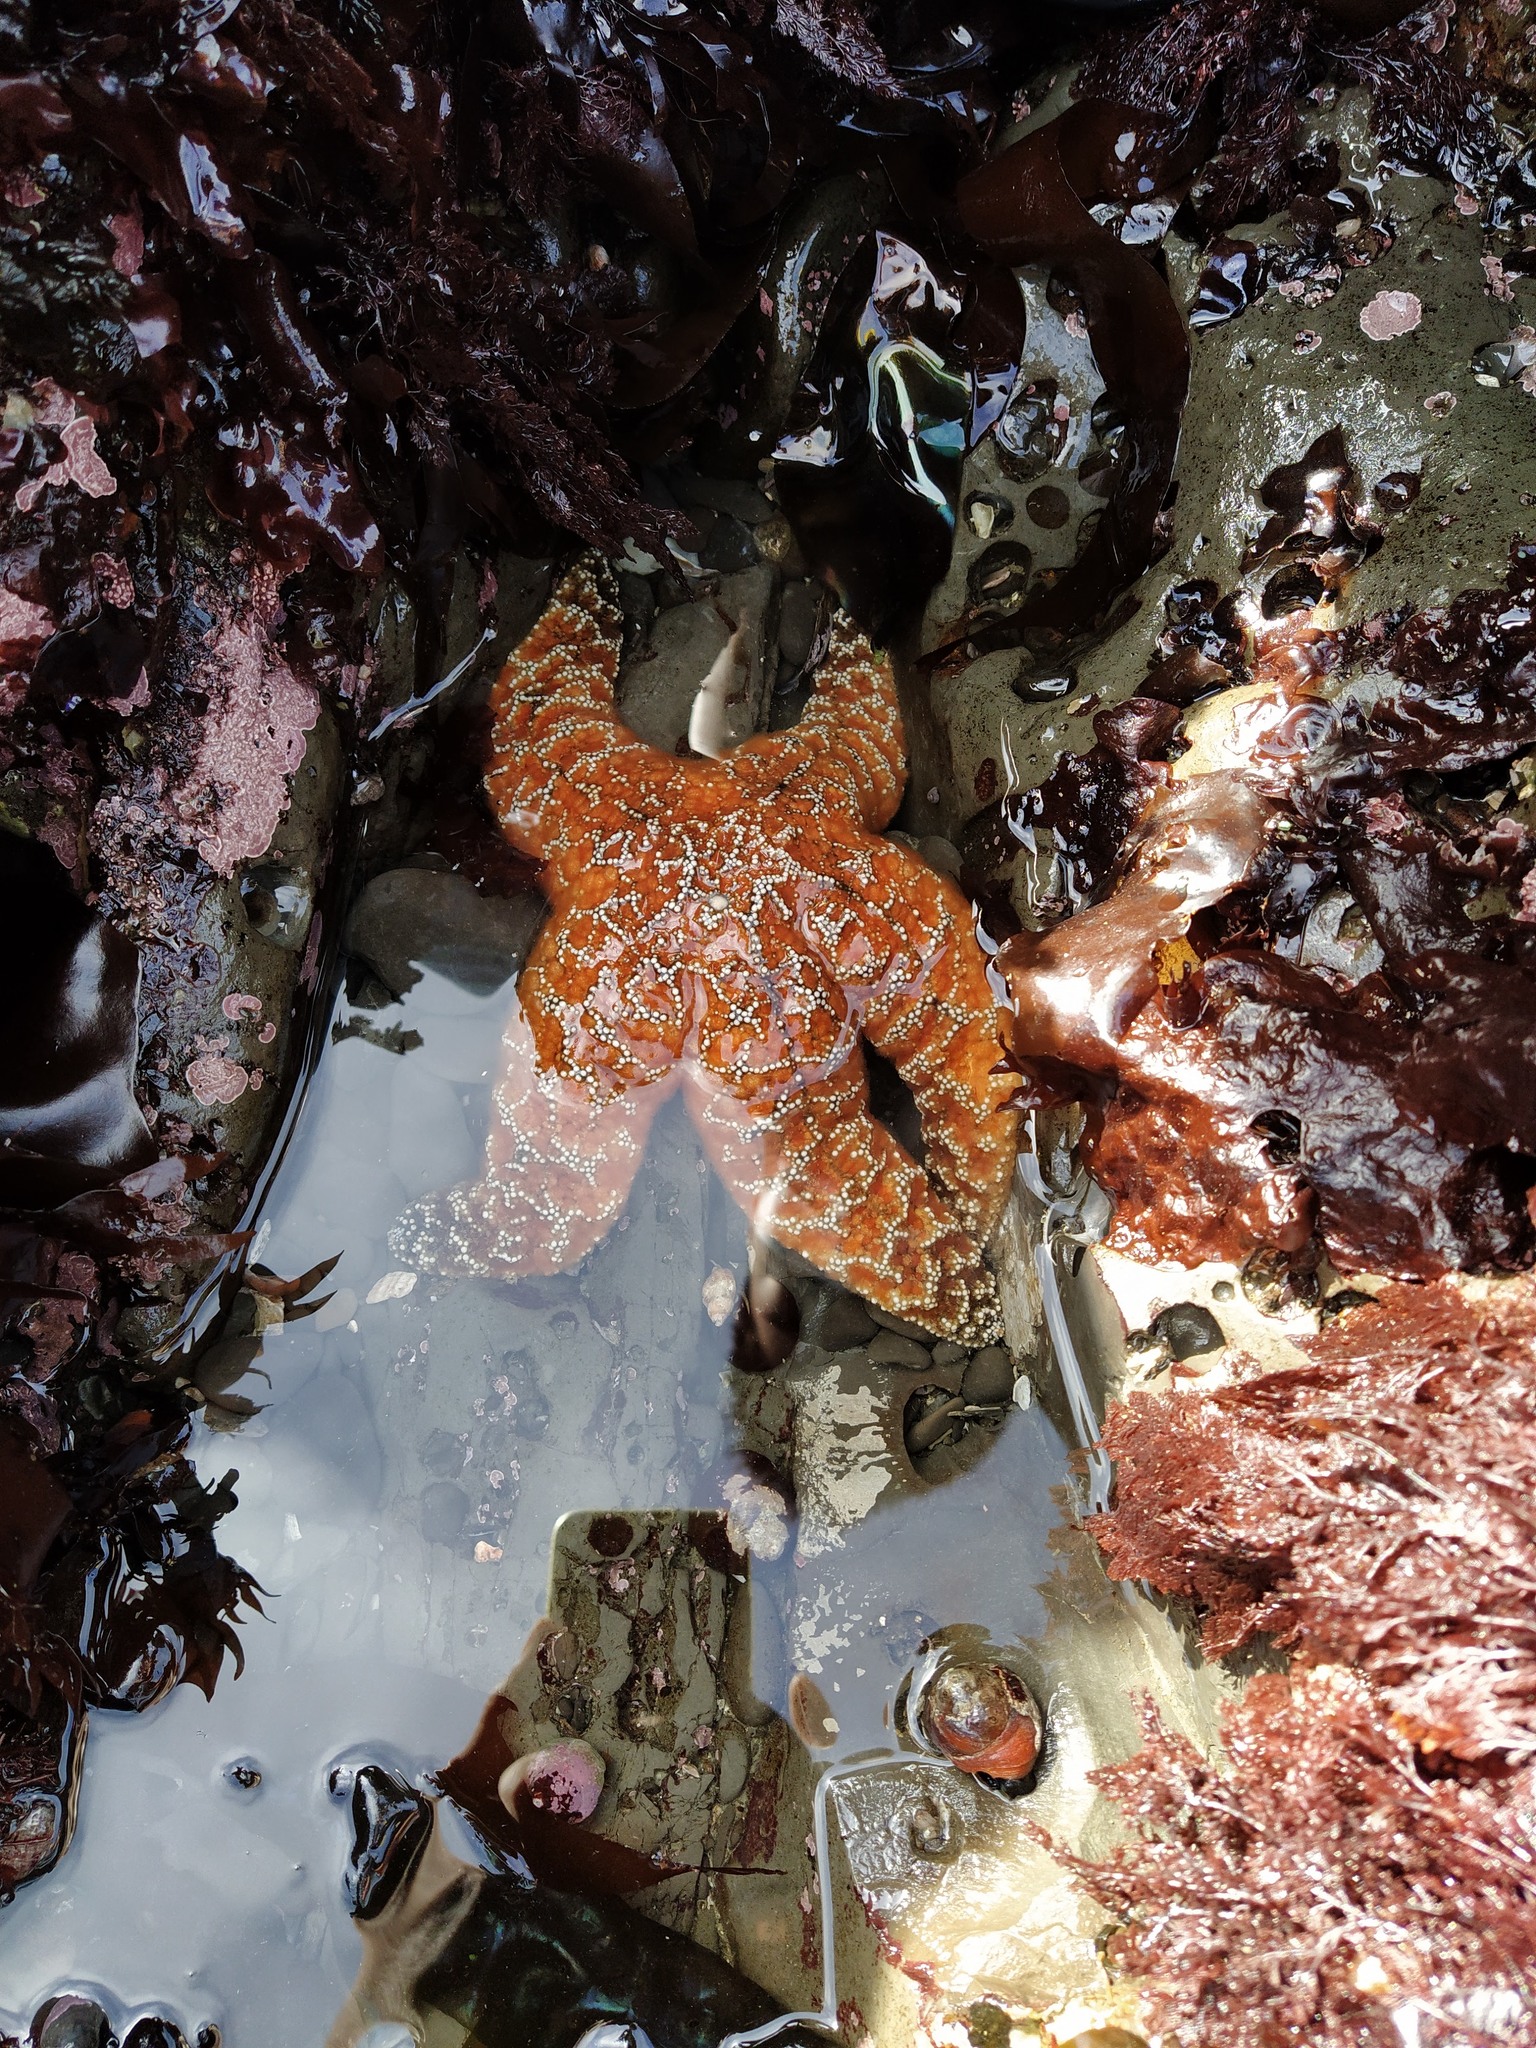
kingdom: Animalia
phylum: Echinodermata
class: Asteroidea
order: Forcipulatida
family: Asteriidae
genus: Pisaster
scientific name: Pisaster ochraceus
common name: Ochre stars
